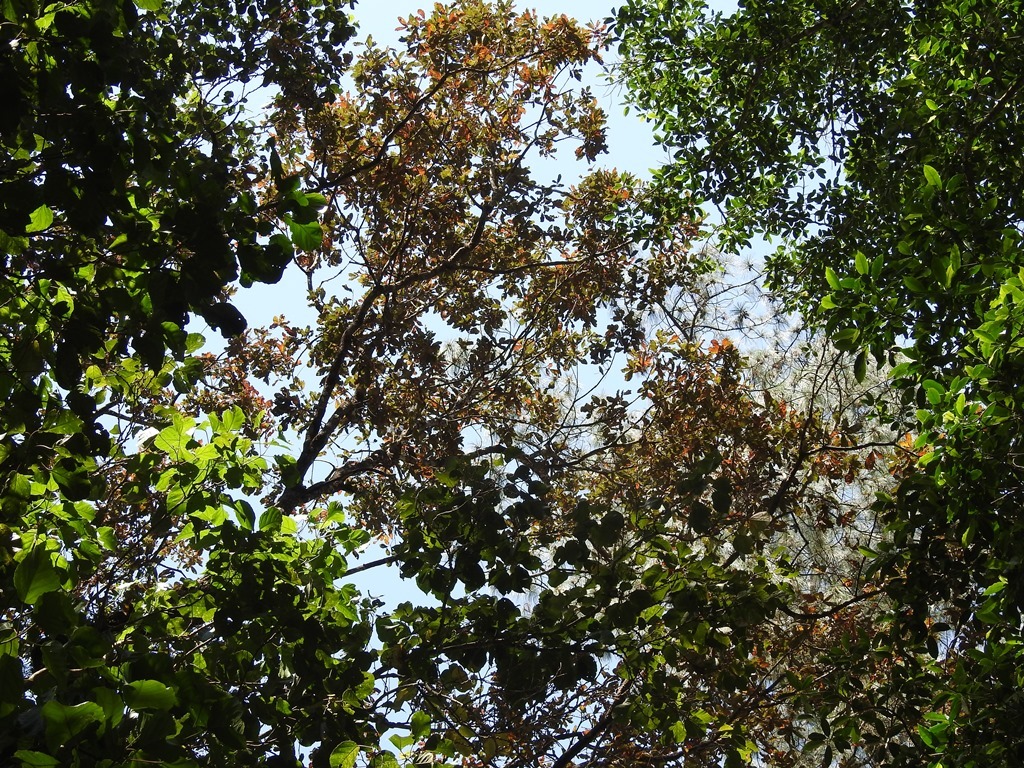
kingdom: Plantae
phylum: Tracheophyta
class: Magnoliopsida
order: Fagales
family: Fagaceae
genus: Quercus
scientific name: Quercus dysophylla
